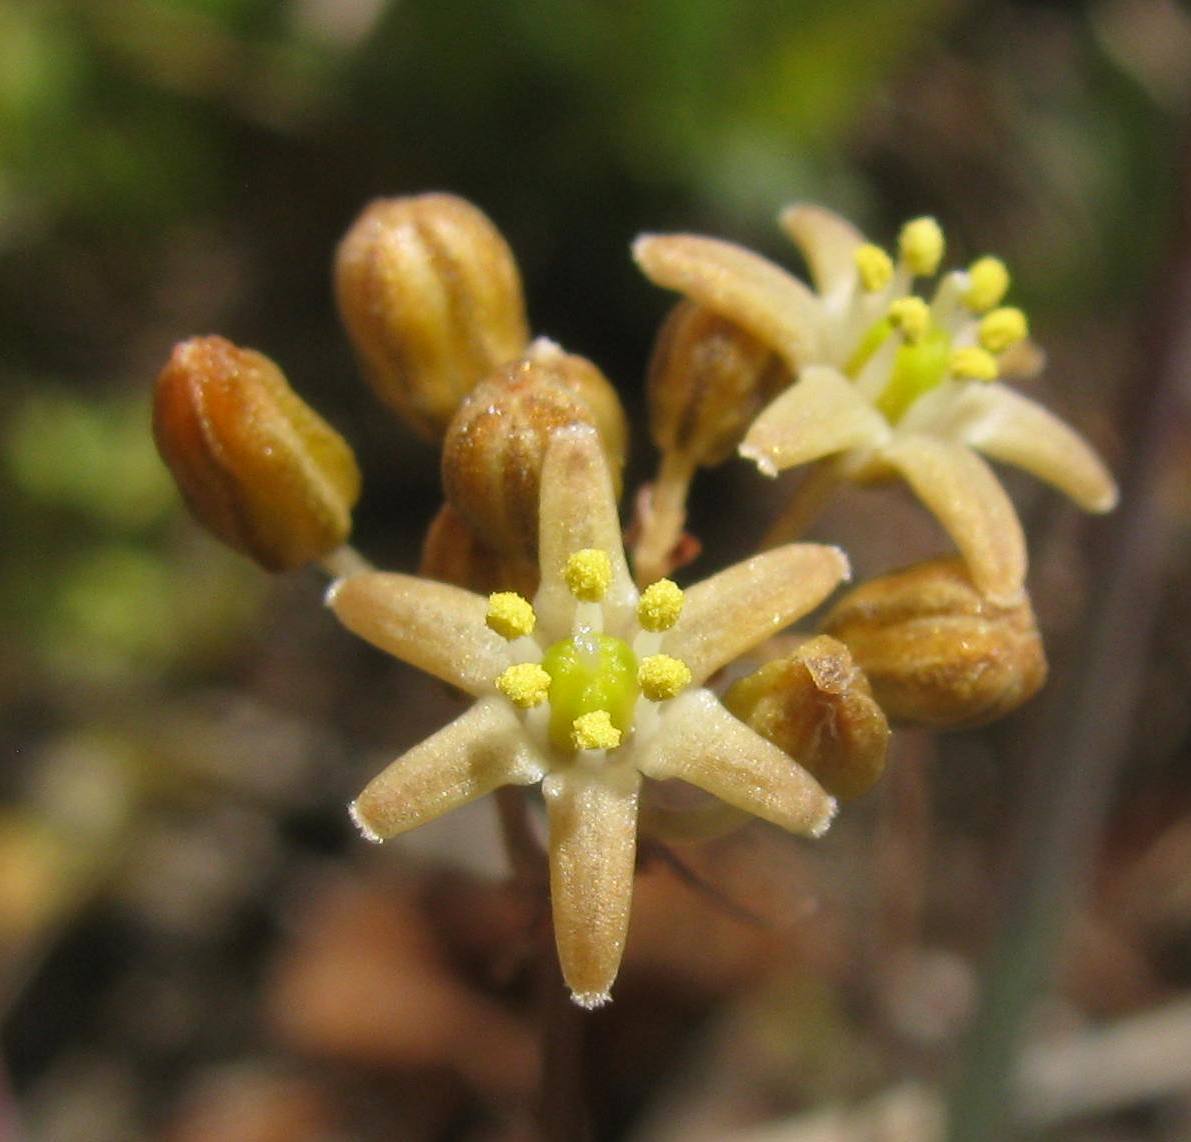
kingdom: Plantae
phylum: Tracheophyta
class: Liliopsida
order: Asparagales
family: Asparagaceae
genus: Austronea
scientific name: Austronea virens
